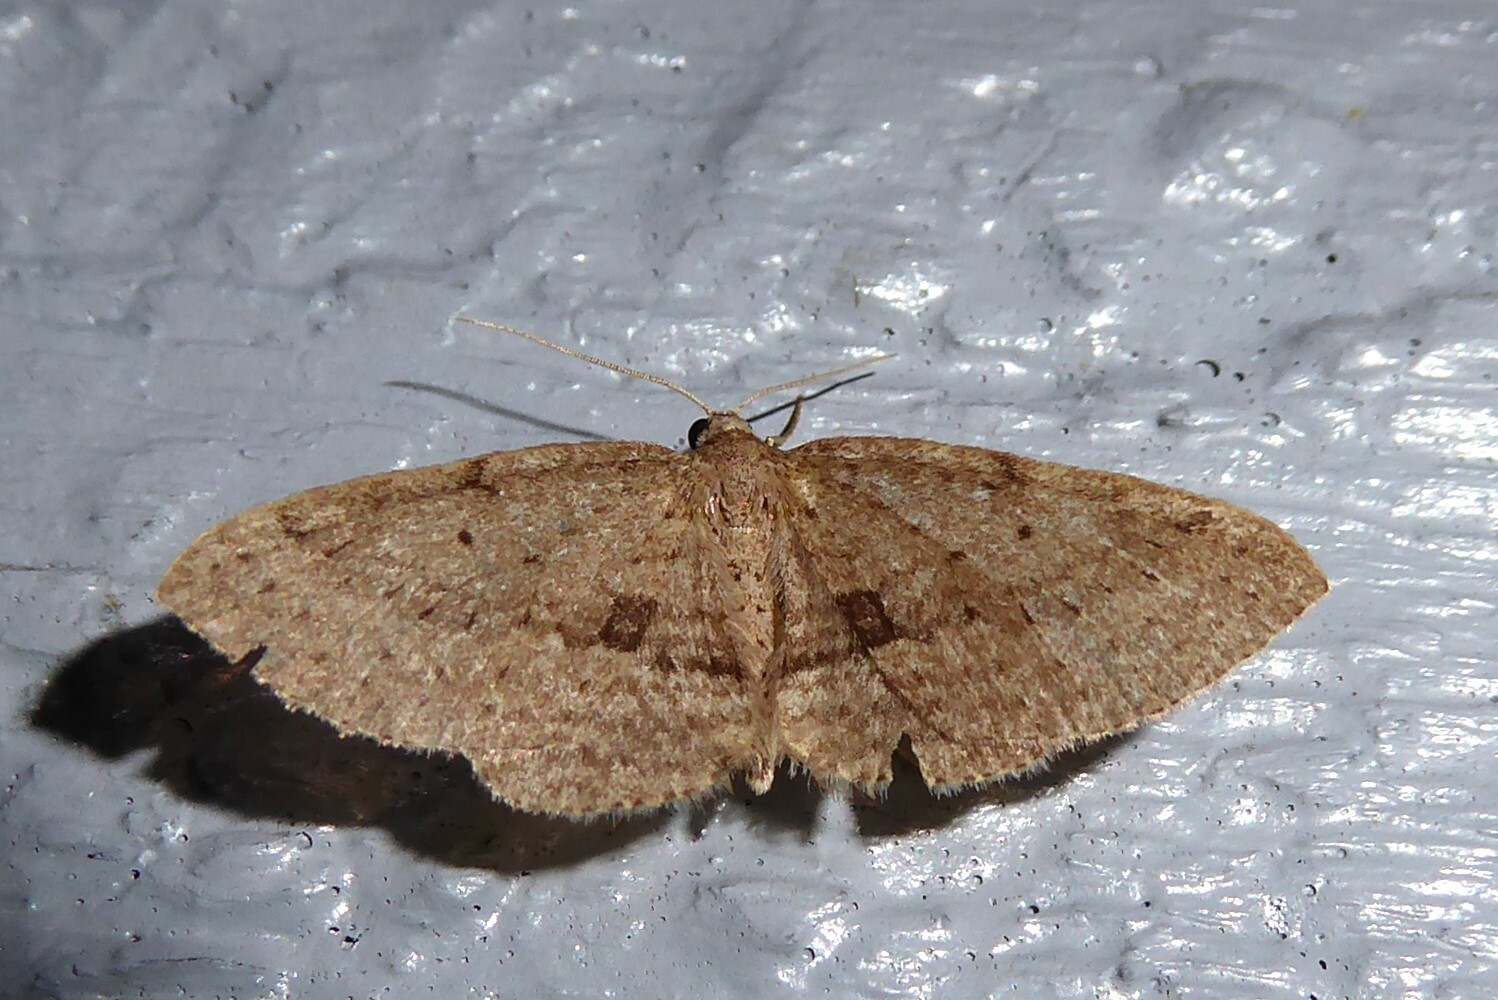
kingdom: Animalia
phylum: Arthropoda
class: Insecta
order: Lepidoptera
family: Geometridae
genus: Poecilasthena
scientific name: Poecilasthena schistaria
